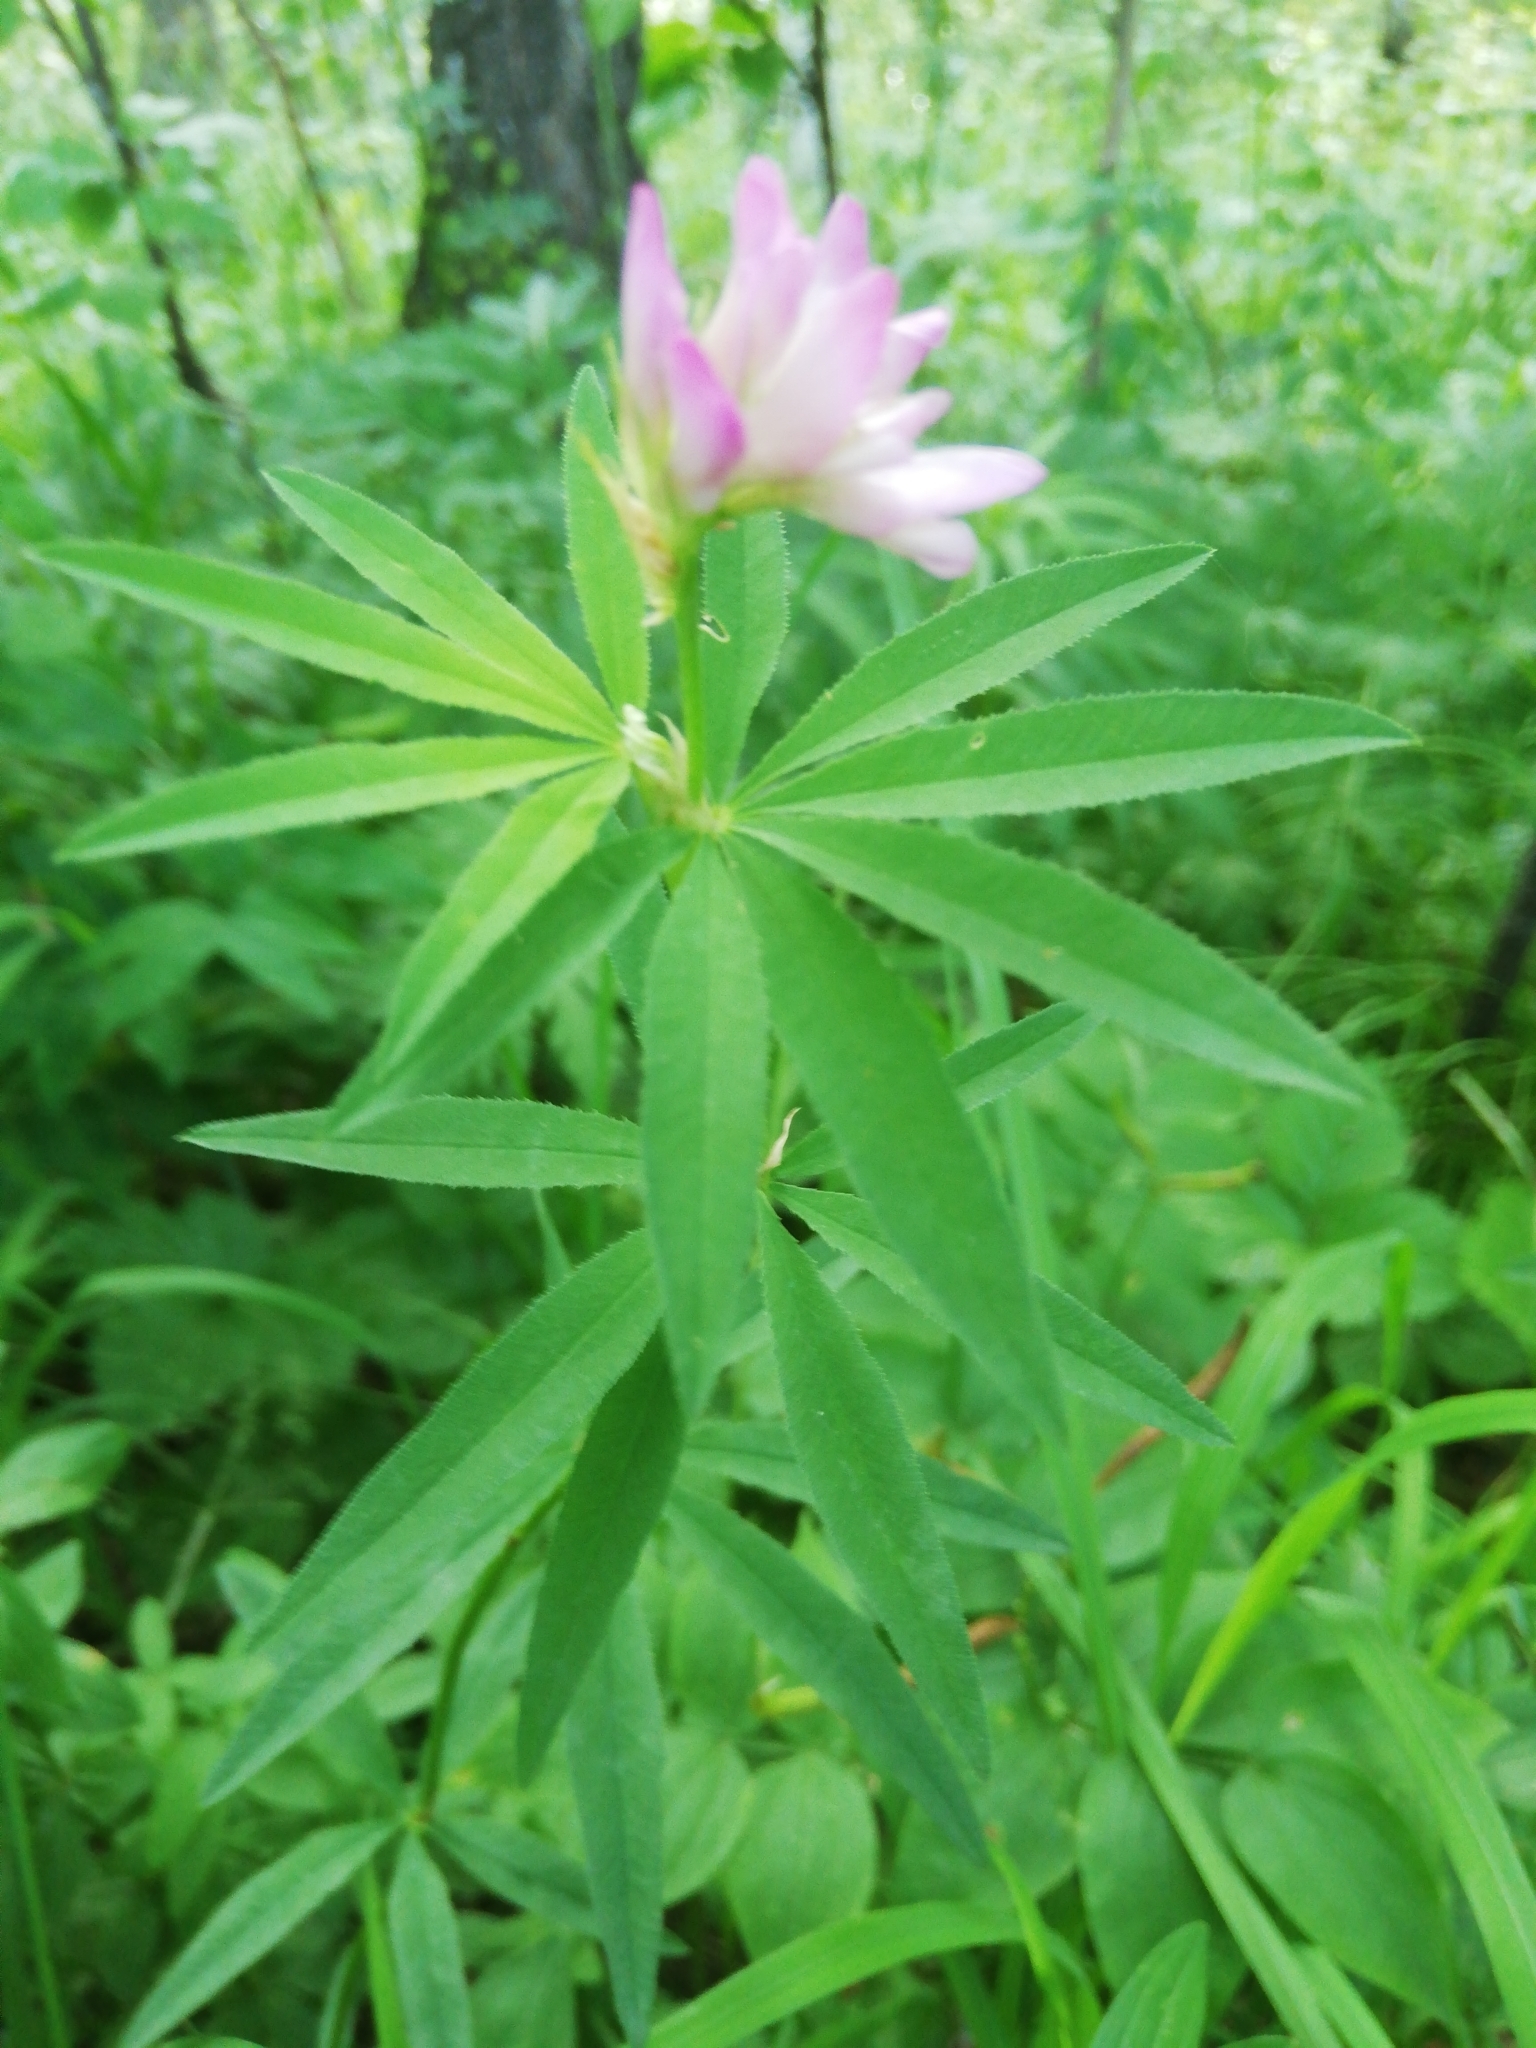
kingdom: Plantae
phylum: Tracheophyta
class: Magnoliopsida
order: Fabales
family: Fabaceae
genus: Trifolium
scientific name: Trifolium lupinaster
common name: Lupine clover
